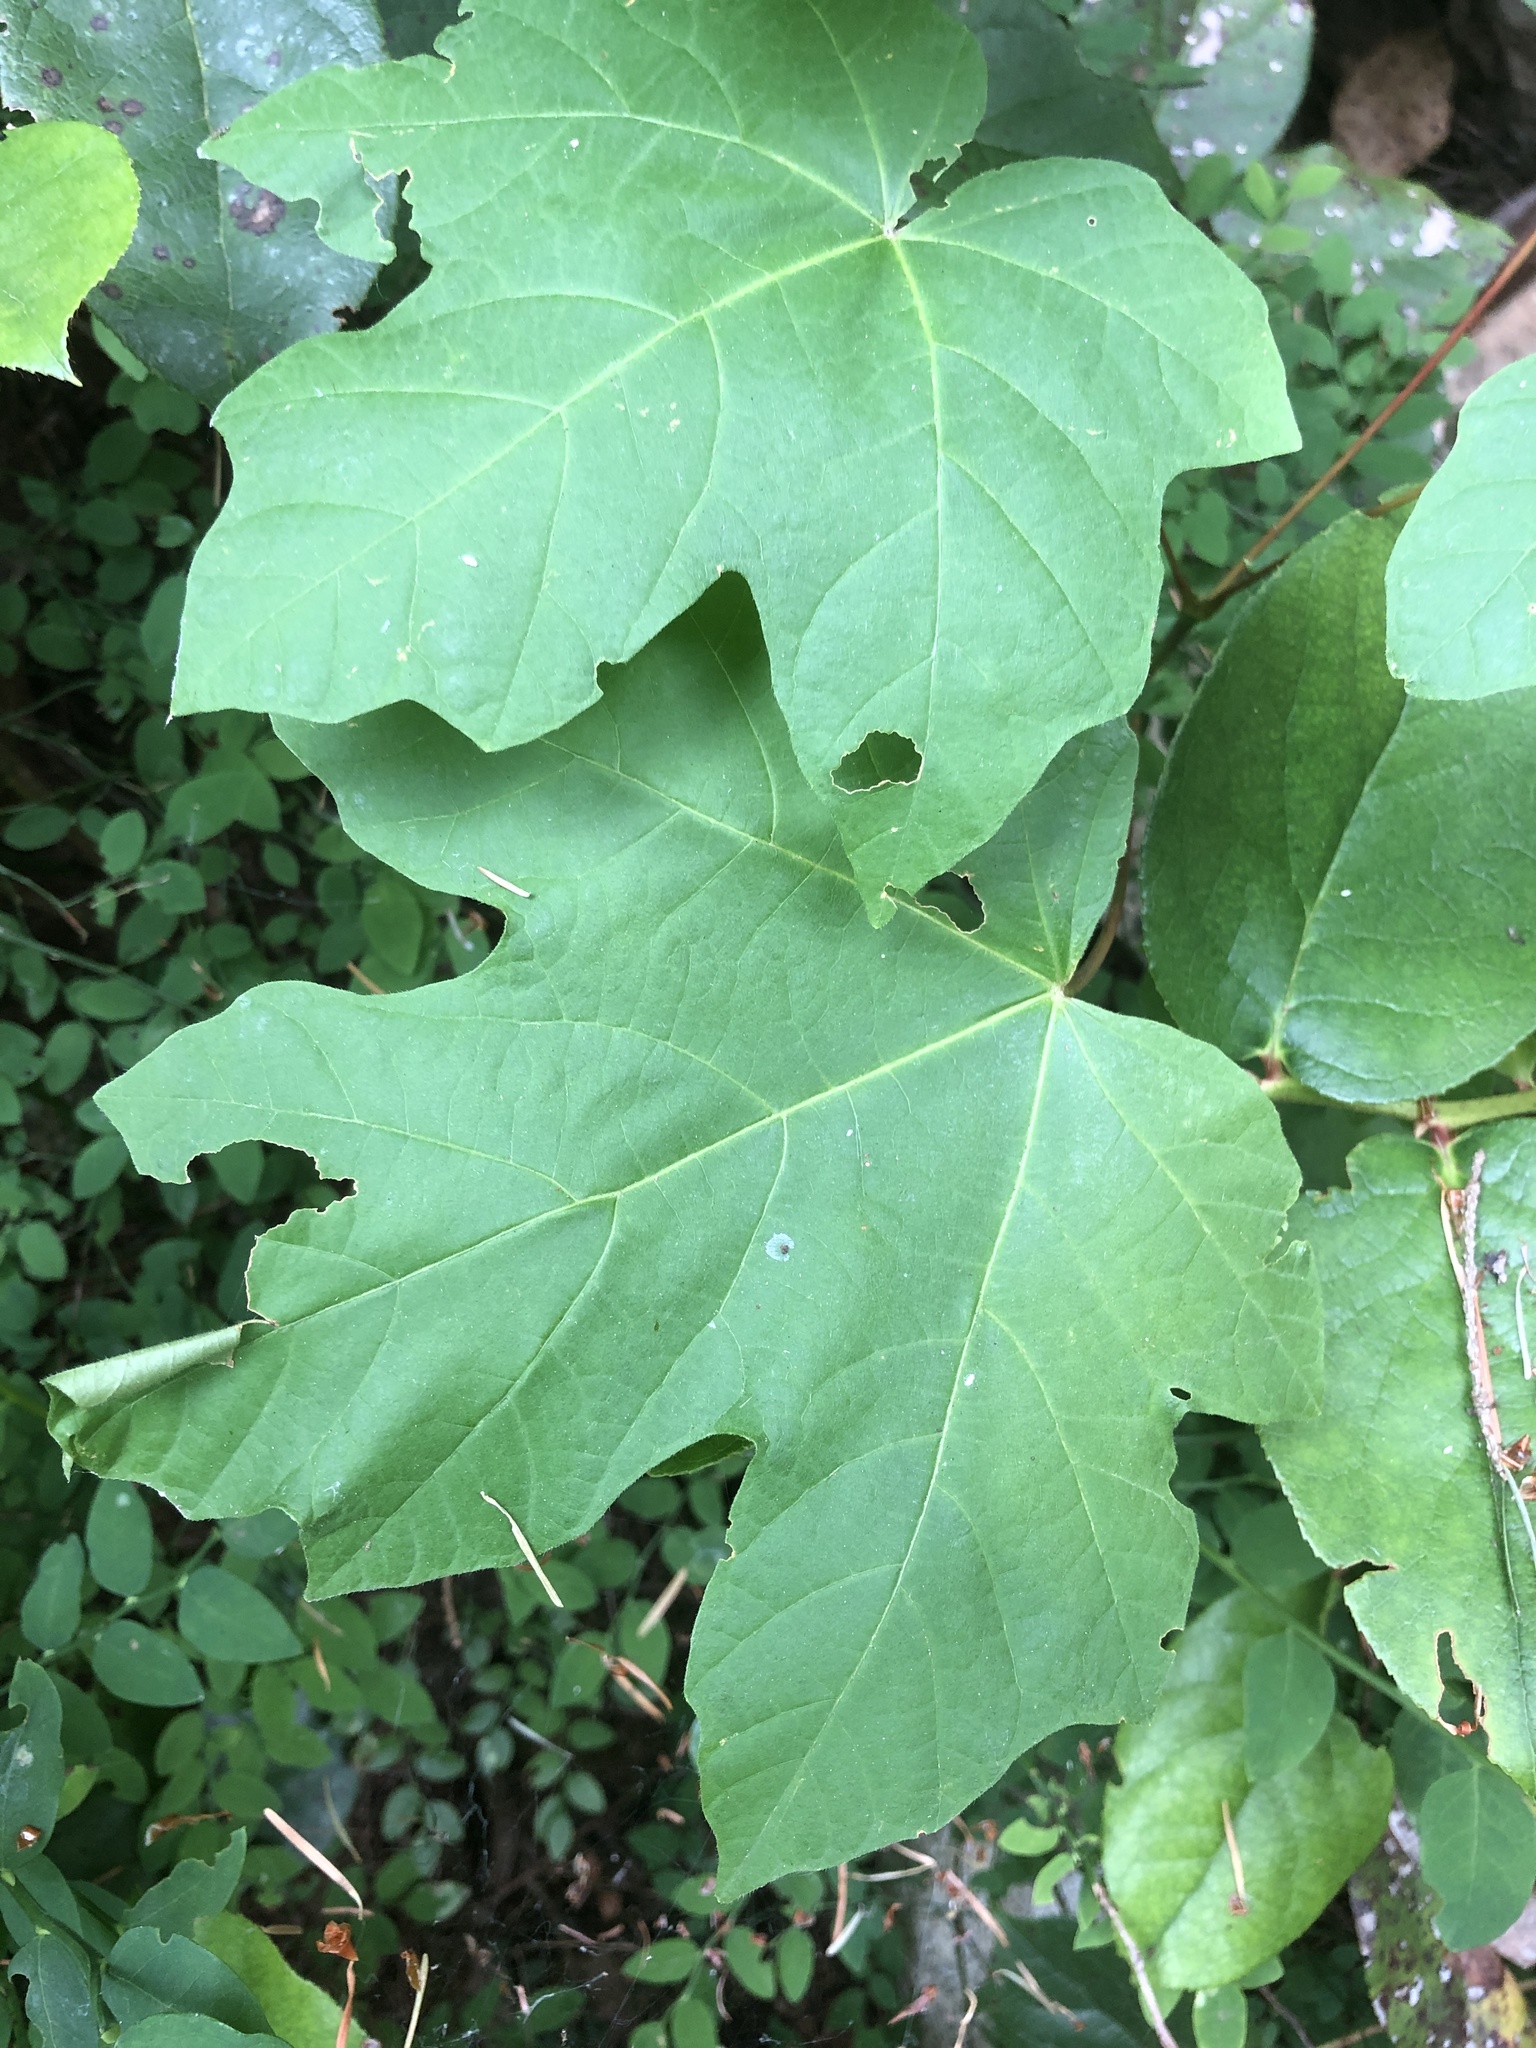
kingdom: Plantae
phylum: Tracheophyta
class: Magnoliopsida
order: Sapindales
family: Sapindaceae
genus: Acer
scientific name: Acer macrophyllum
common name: Oregon maple
